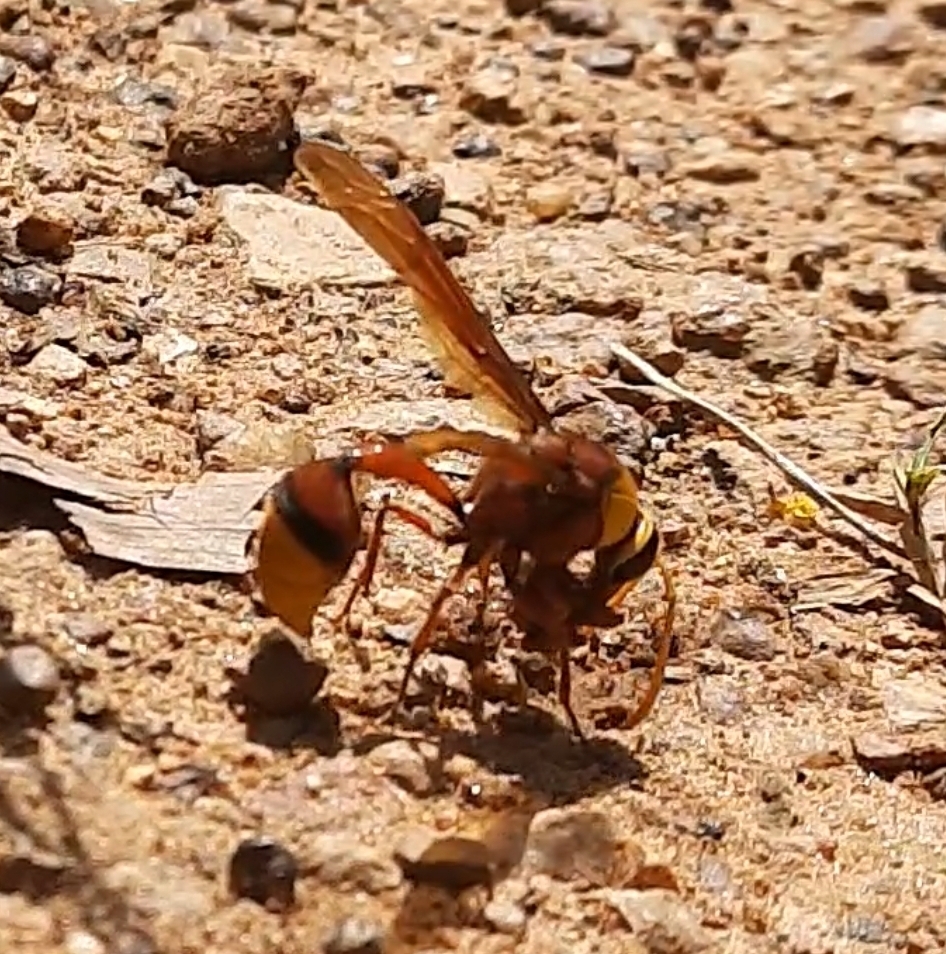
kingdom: Animalia
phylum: Arthropoda
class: Insecta
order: Hymenoptera
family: Eumenidae
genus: Delta
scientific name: Delta pyriforme
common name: Wasp
